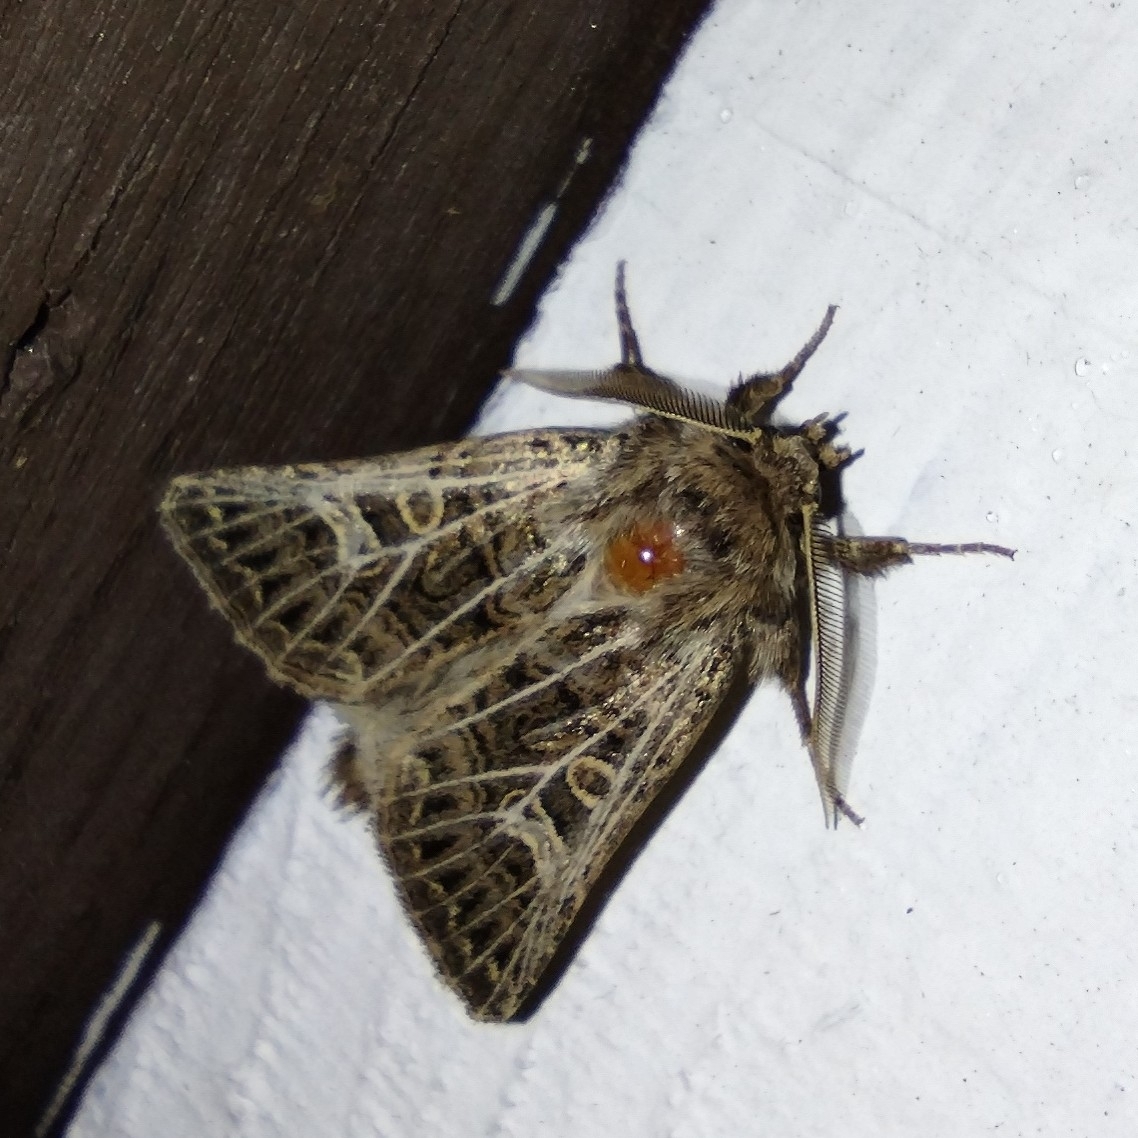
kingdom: Animalia
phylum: Arthropoda
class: Insecta
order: Lepidoptera
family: Noctuidae
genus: Tholera
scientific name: Tholera decimalis
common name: Feathered gothic
